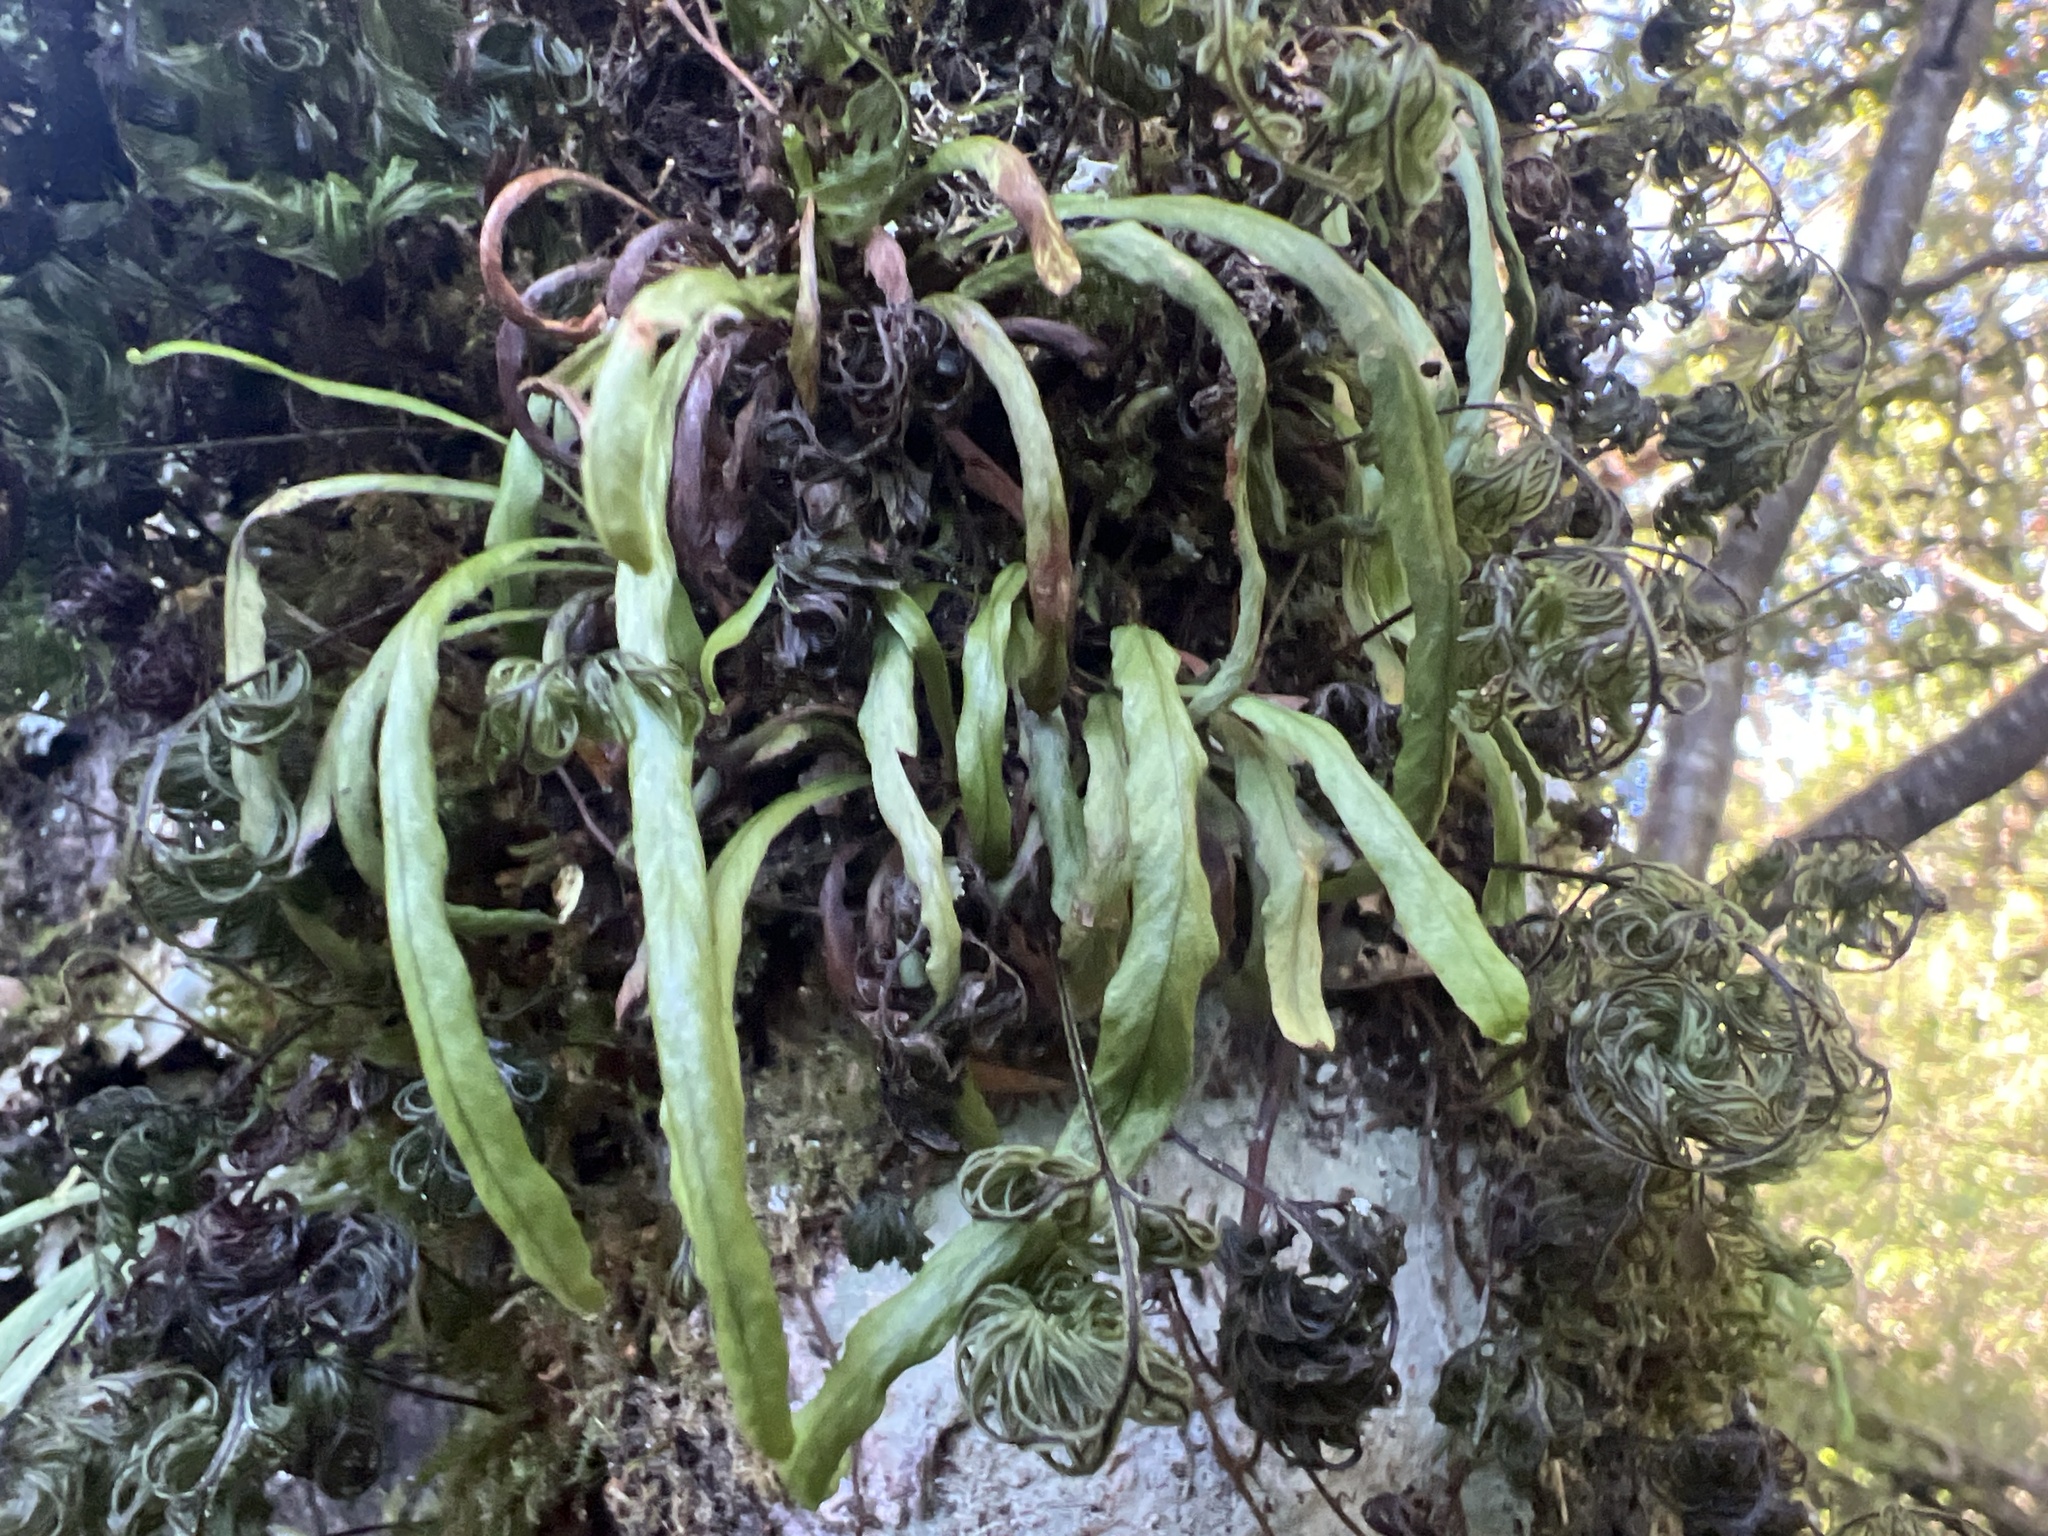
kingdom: Plantae
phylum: Tracheophyta
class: Polypodiopsida
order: Polypodiales
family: Polypodiaceae
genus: Notogrammitis
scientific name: Notogrammitis angustifolia
